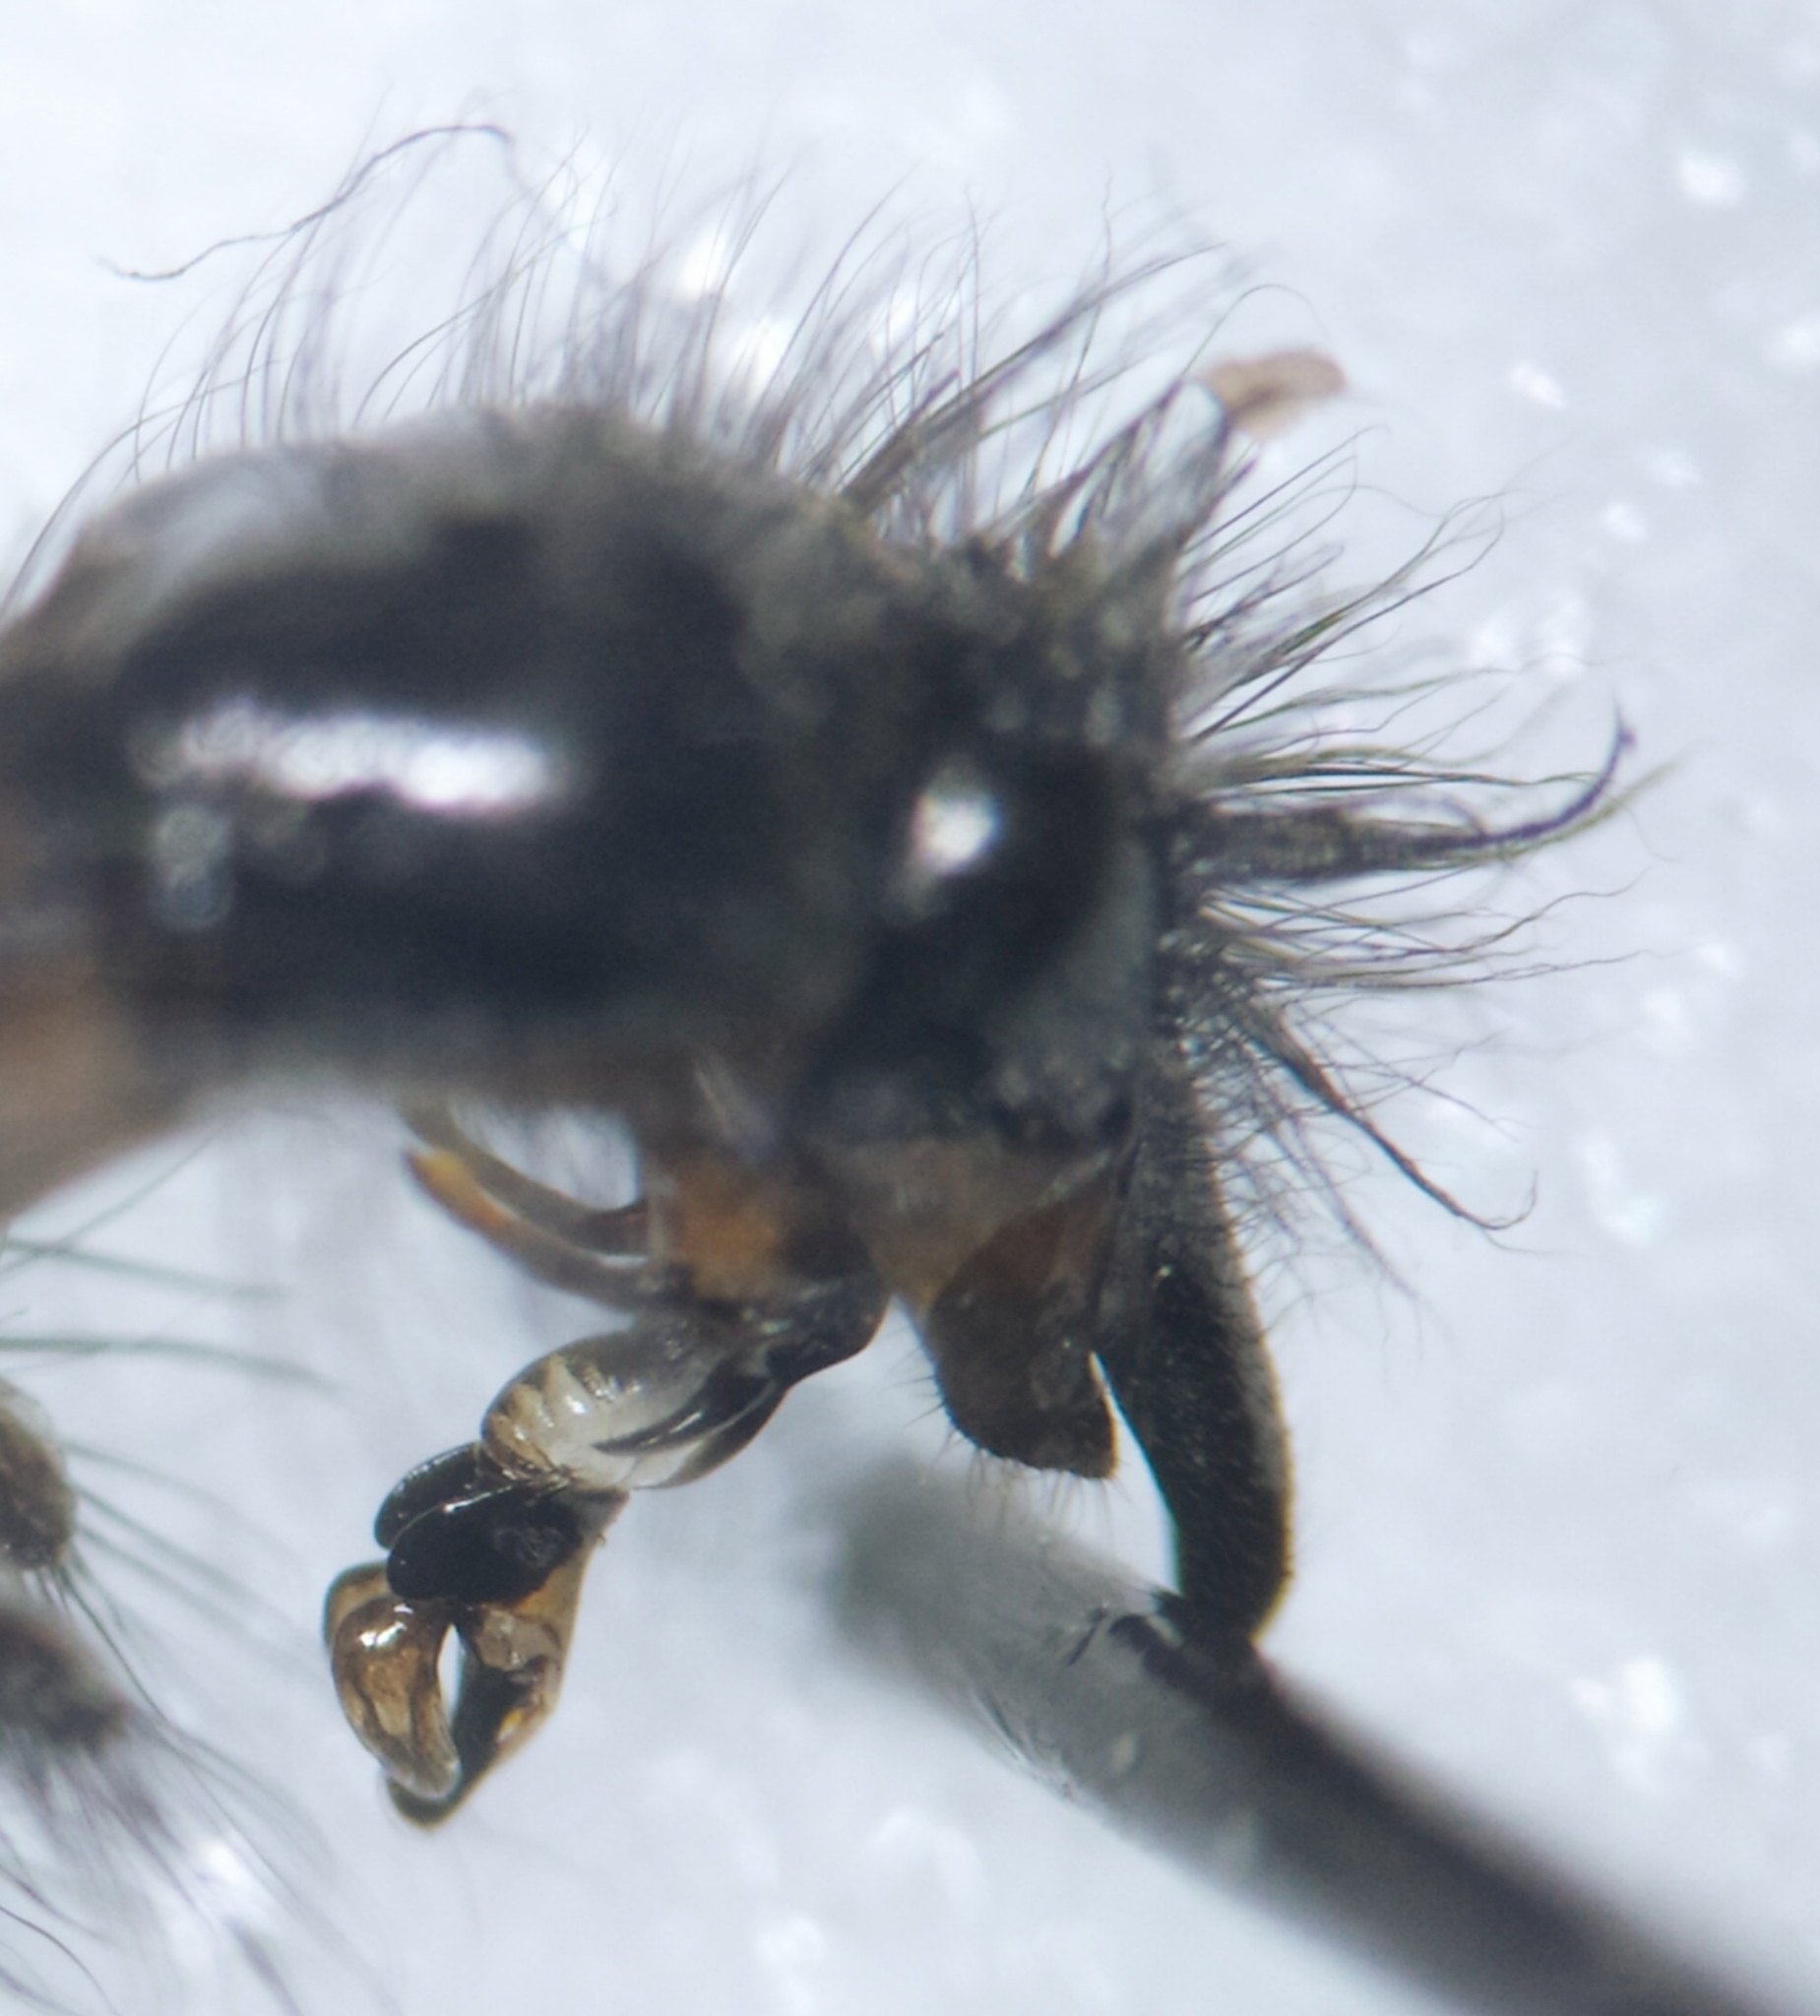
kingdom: Animalia
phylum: Arthropoda
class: Insecta
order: Diptera
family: Sarcophagidae
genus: Sarcophaga
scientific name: Sarcophaga carnaria
